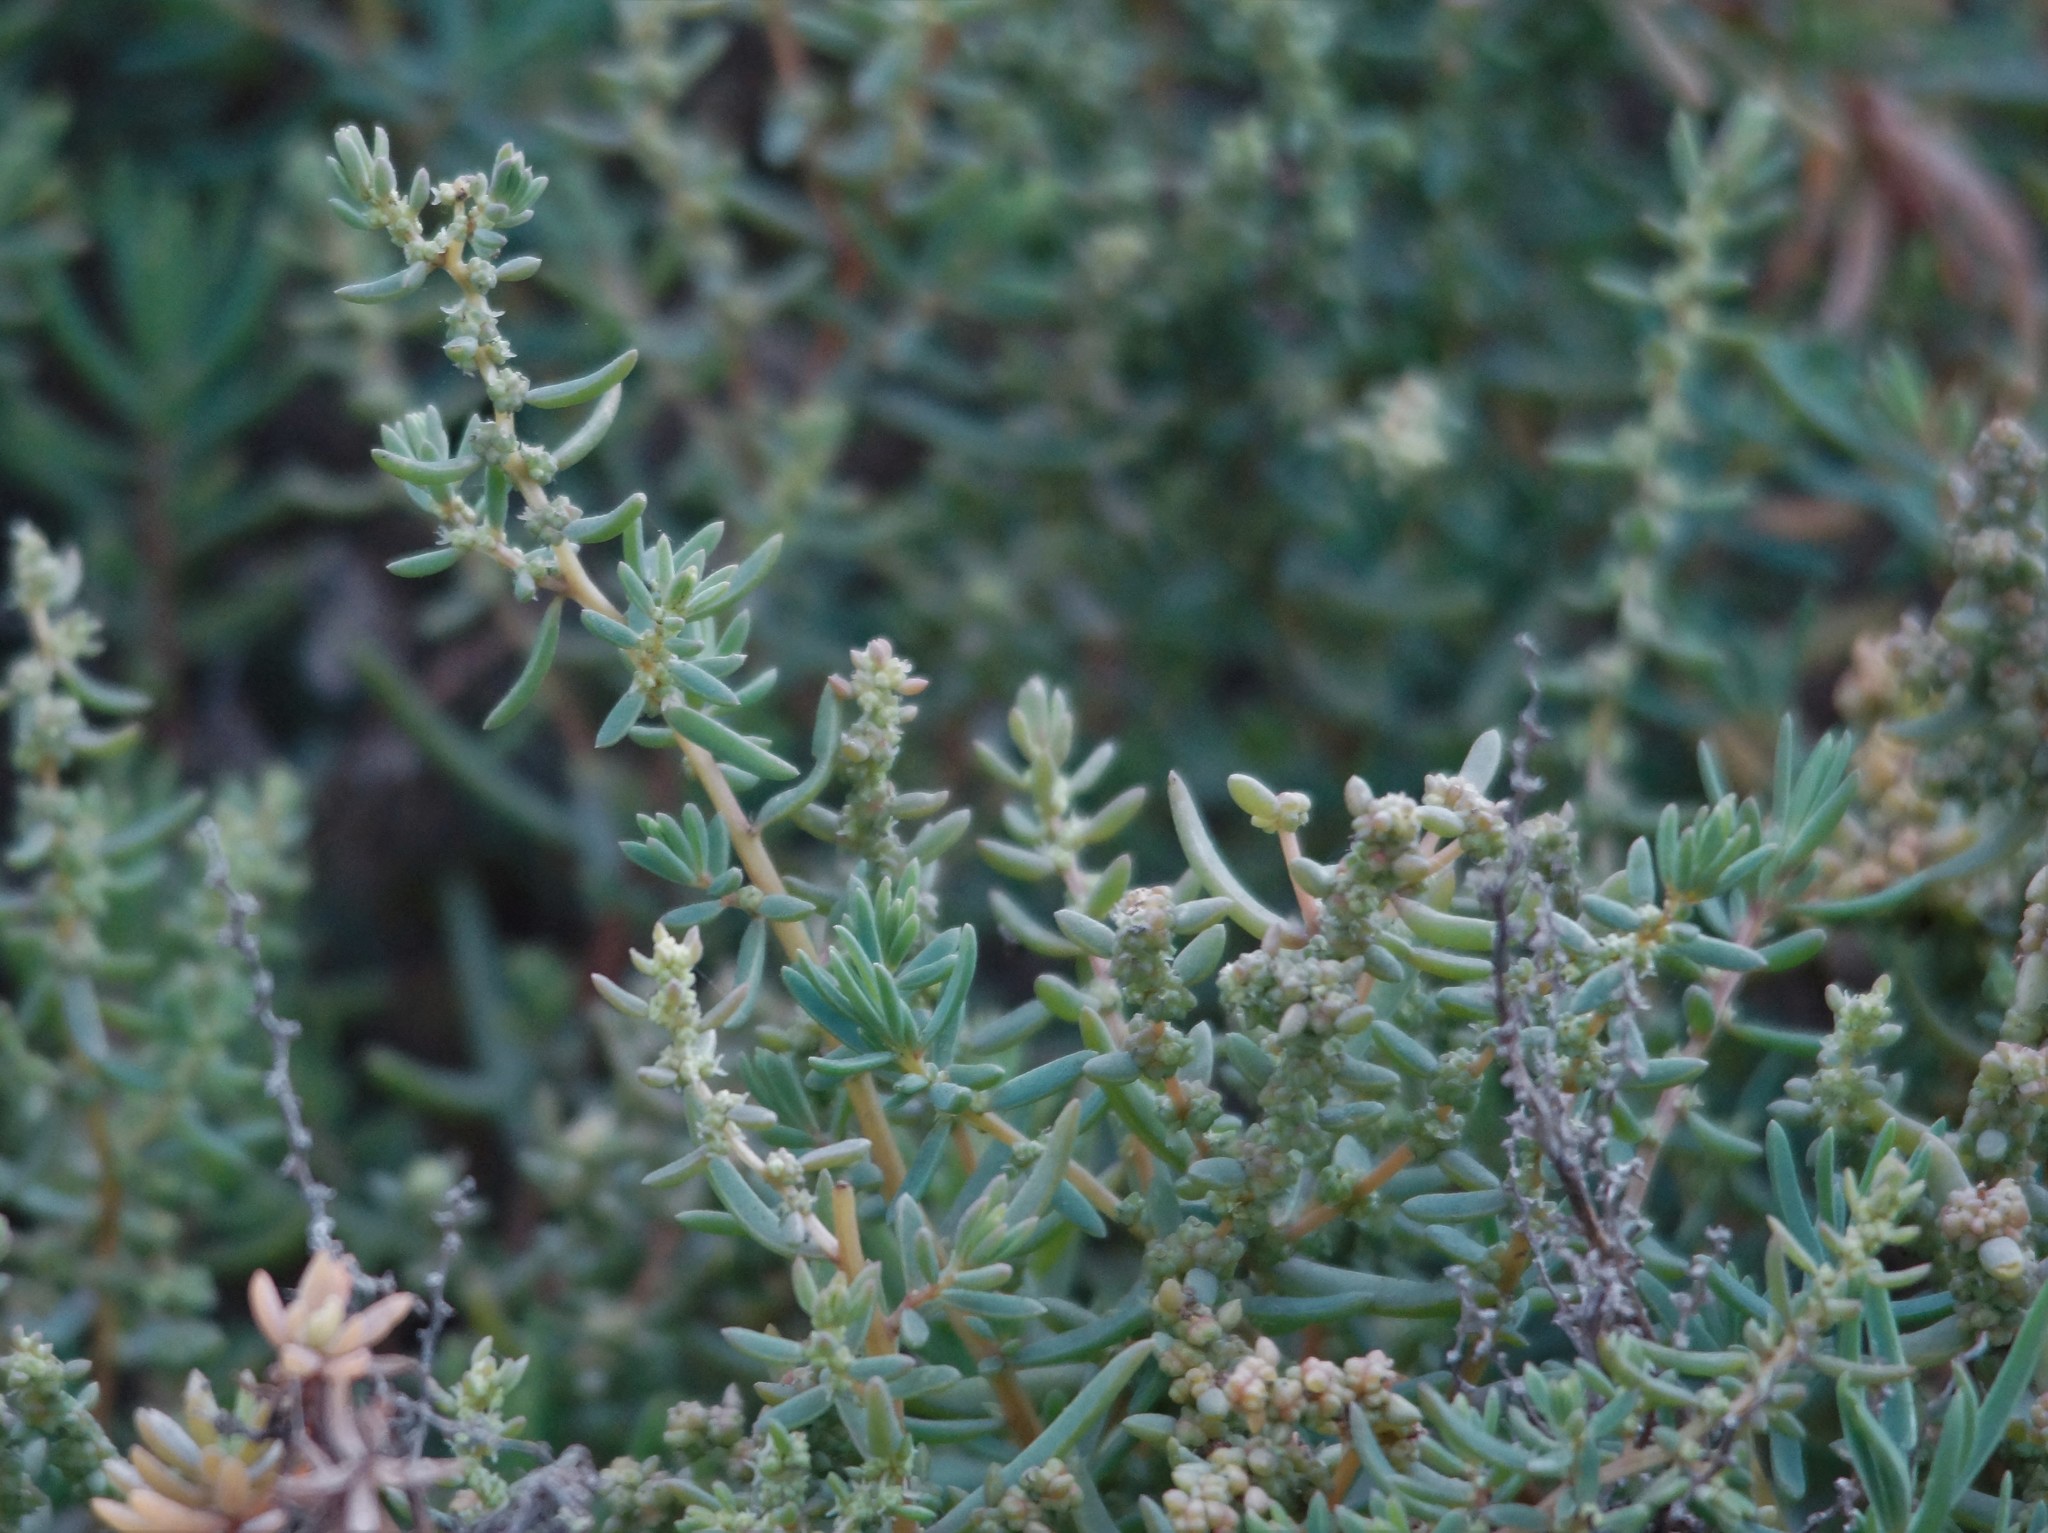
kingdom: Plantae
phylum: Tracheophyta
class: Magnoliopsida
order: Caryophyllales
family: Amaranthaceae
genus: Suaeda
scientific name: Suaeda australis
